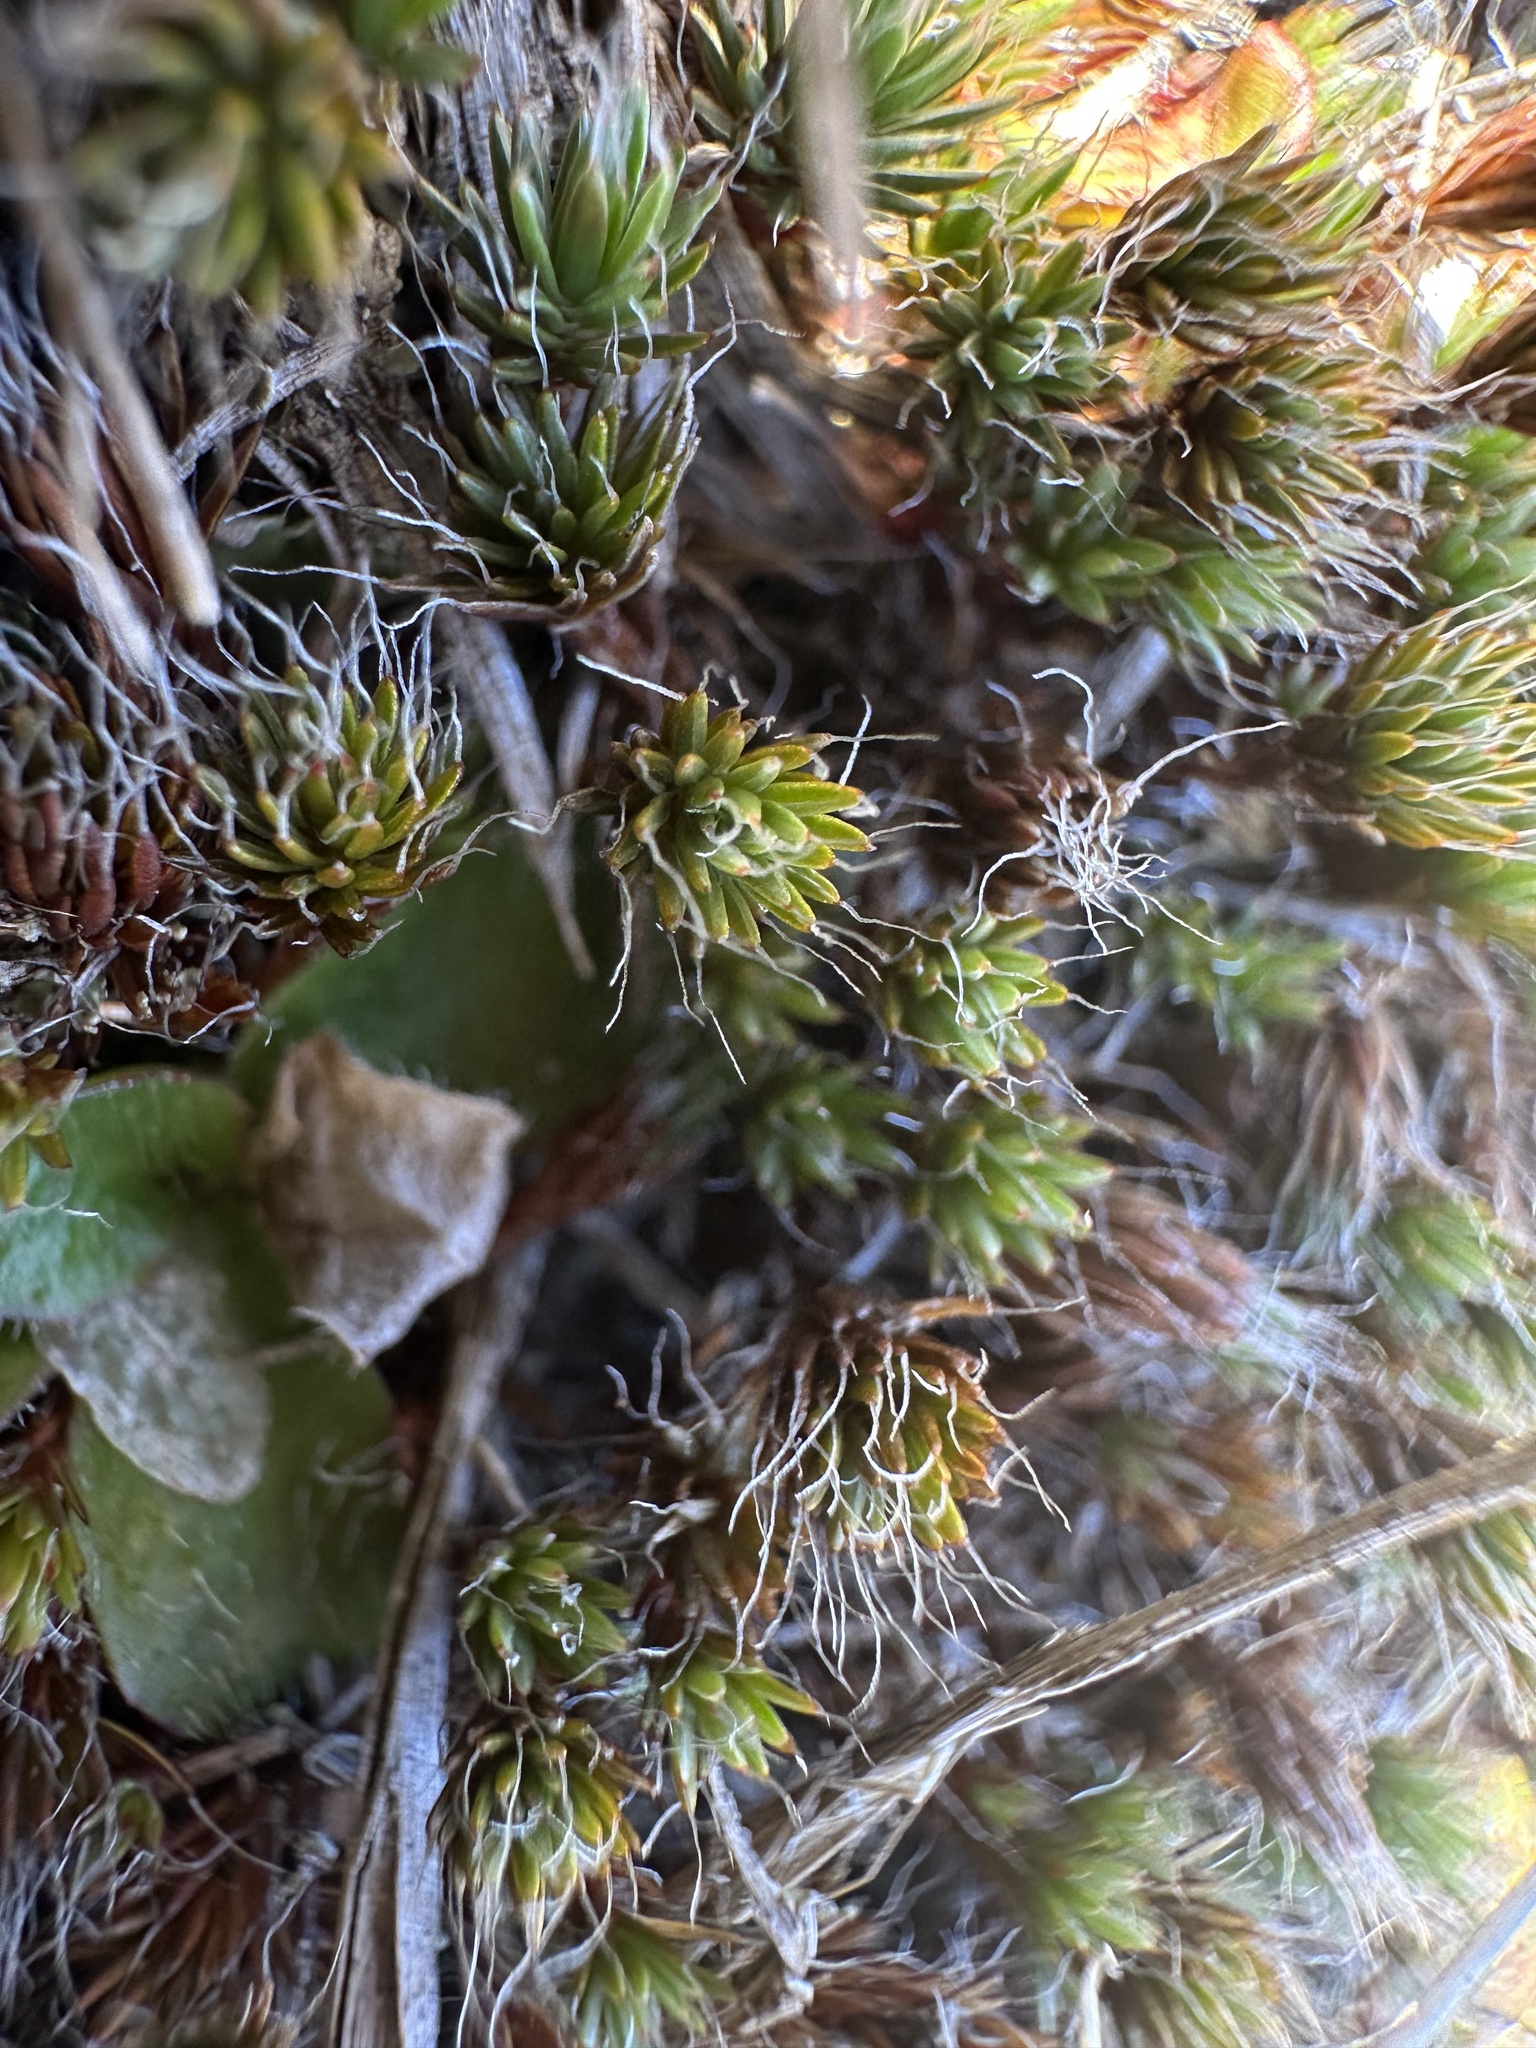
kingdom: Plantae
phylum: Bryophyta
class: Polytrichopsida
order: Polytrichales
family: Polytrichaceae
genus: Polytrichum
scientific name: Polytrichum piliferum
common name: Bristly haircap
